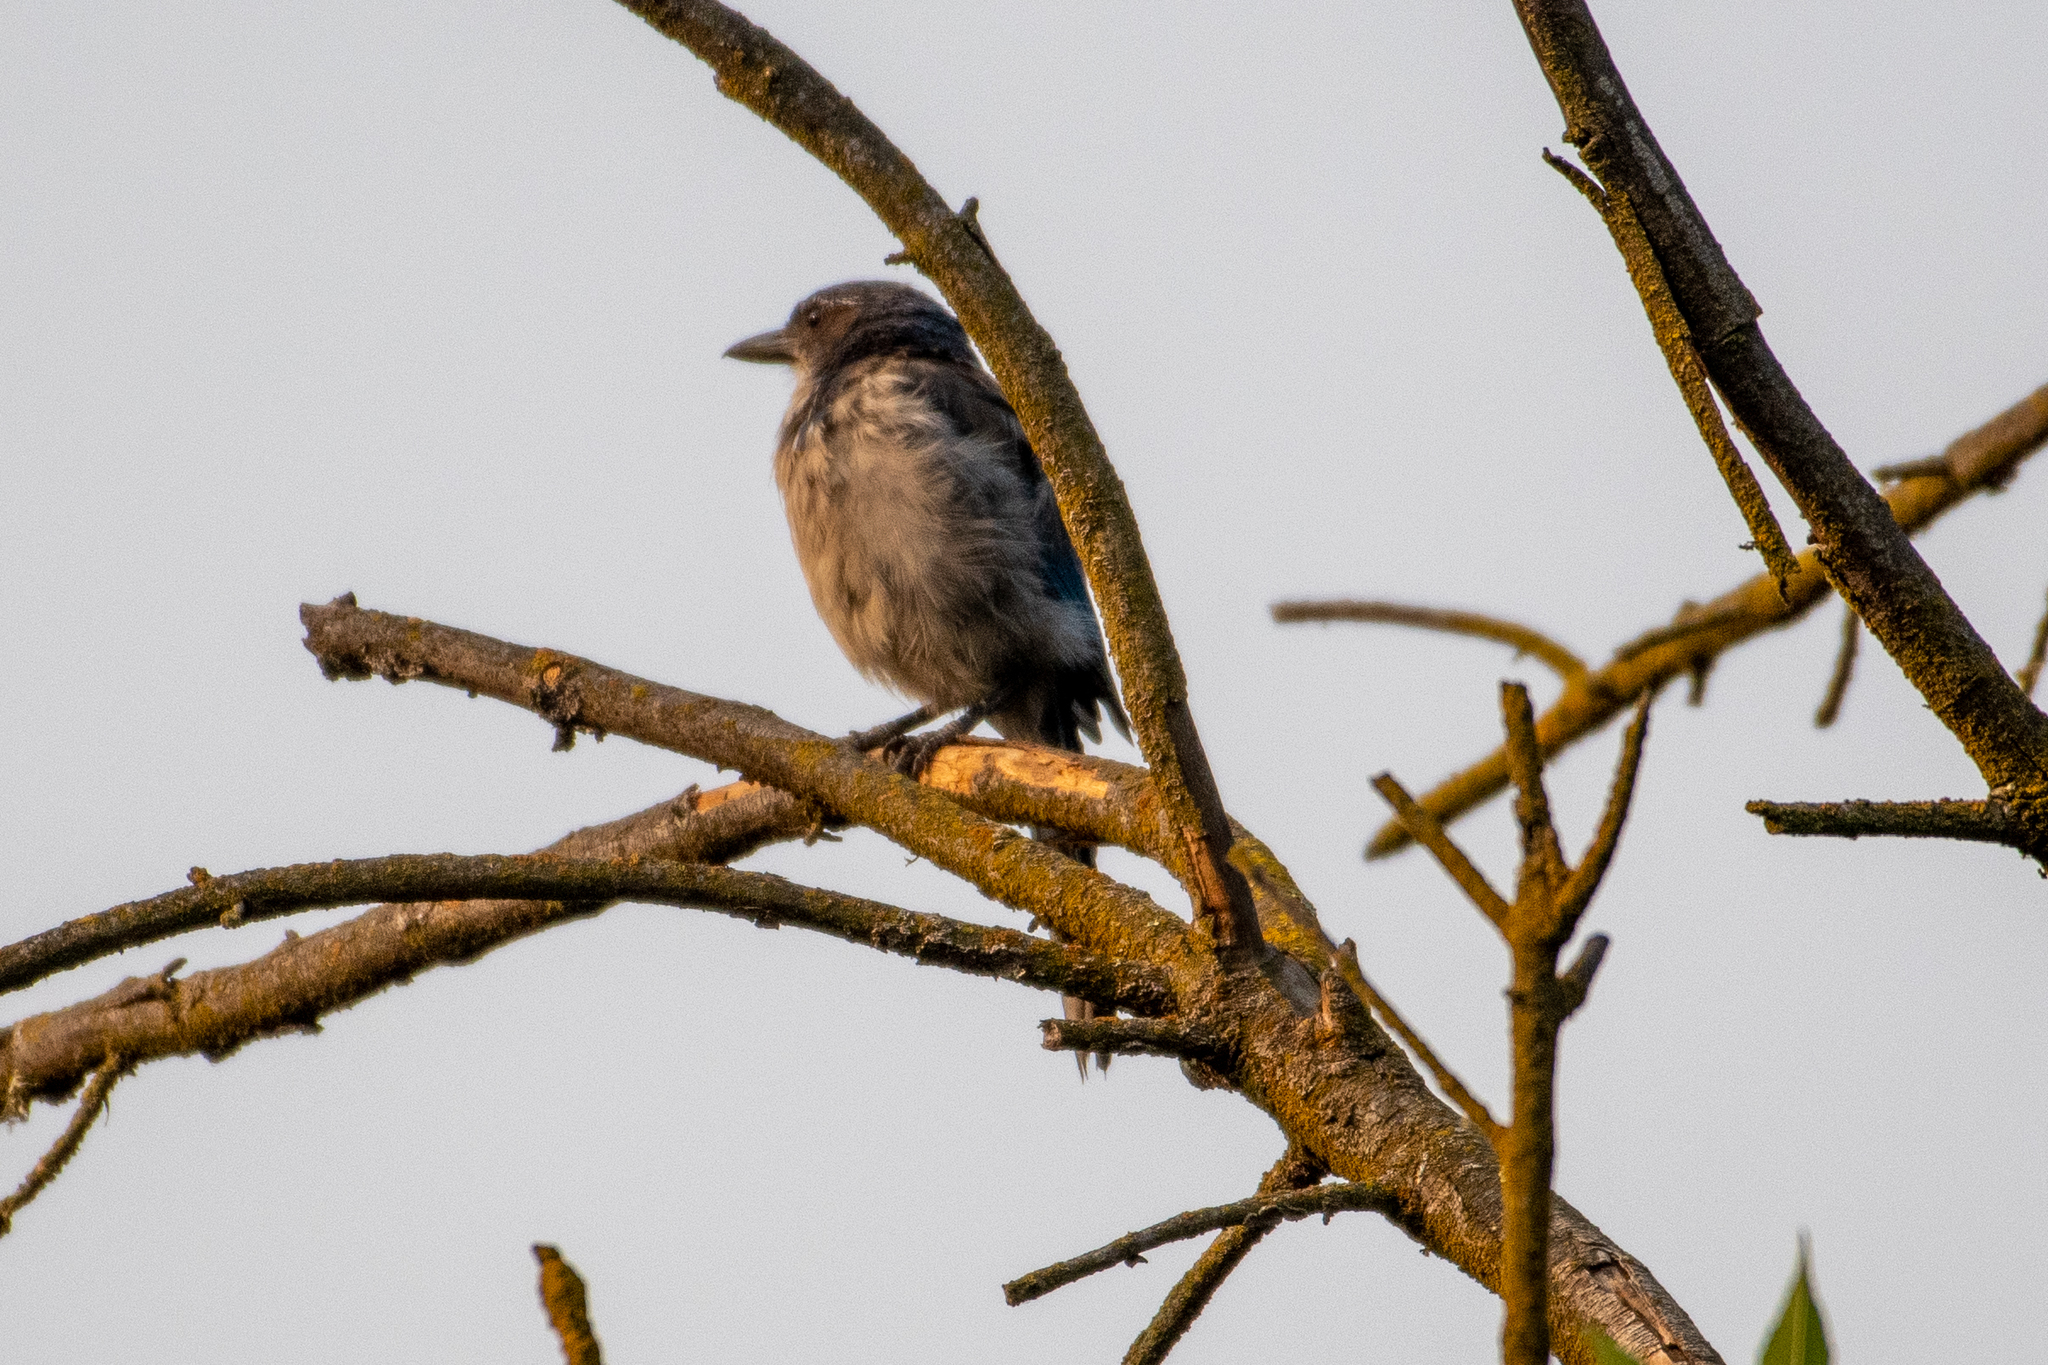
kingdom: Animalia
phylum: Chordata
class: Aves
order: Passeriformes
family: Corvidae
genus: Aphelocoma
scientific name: Aphelocoma californica
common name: California scrub-jay
